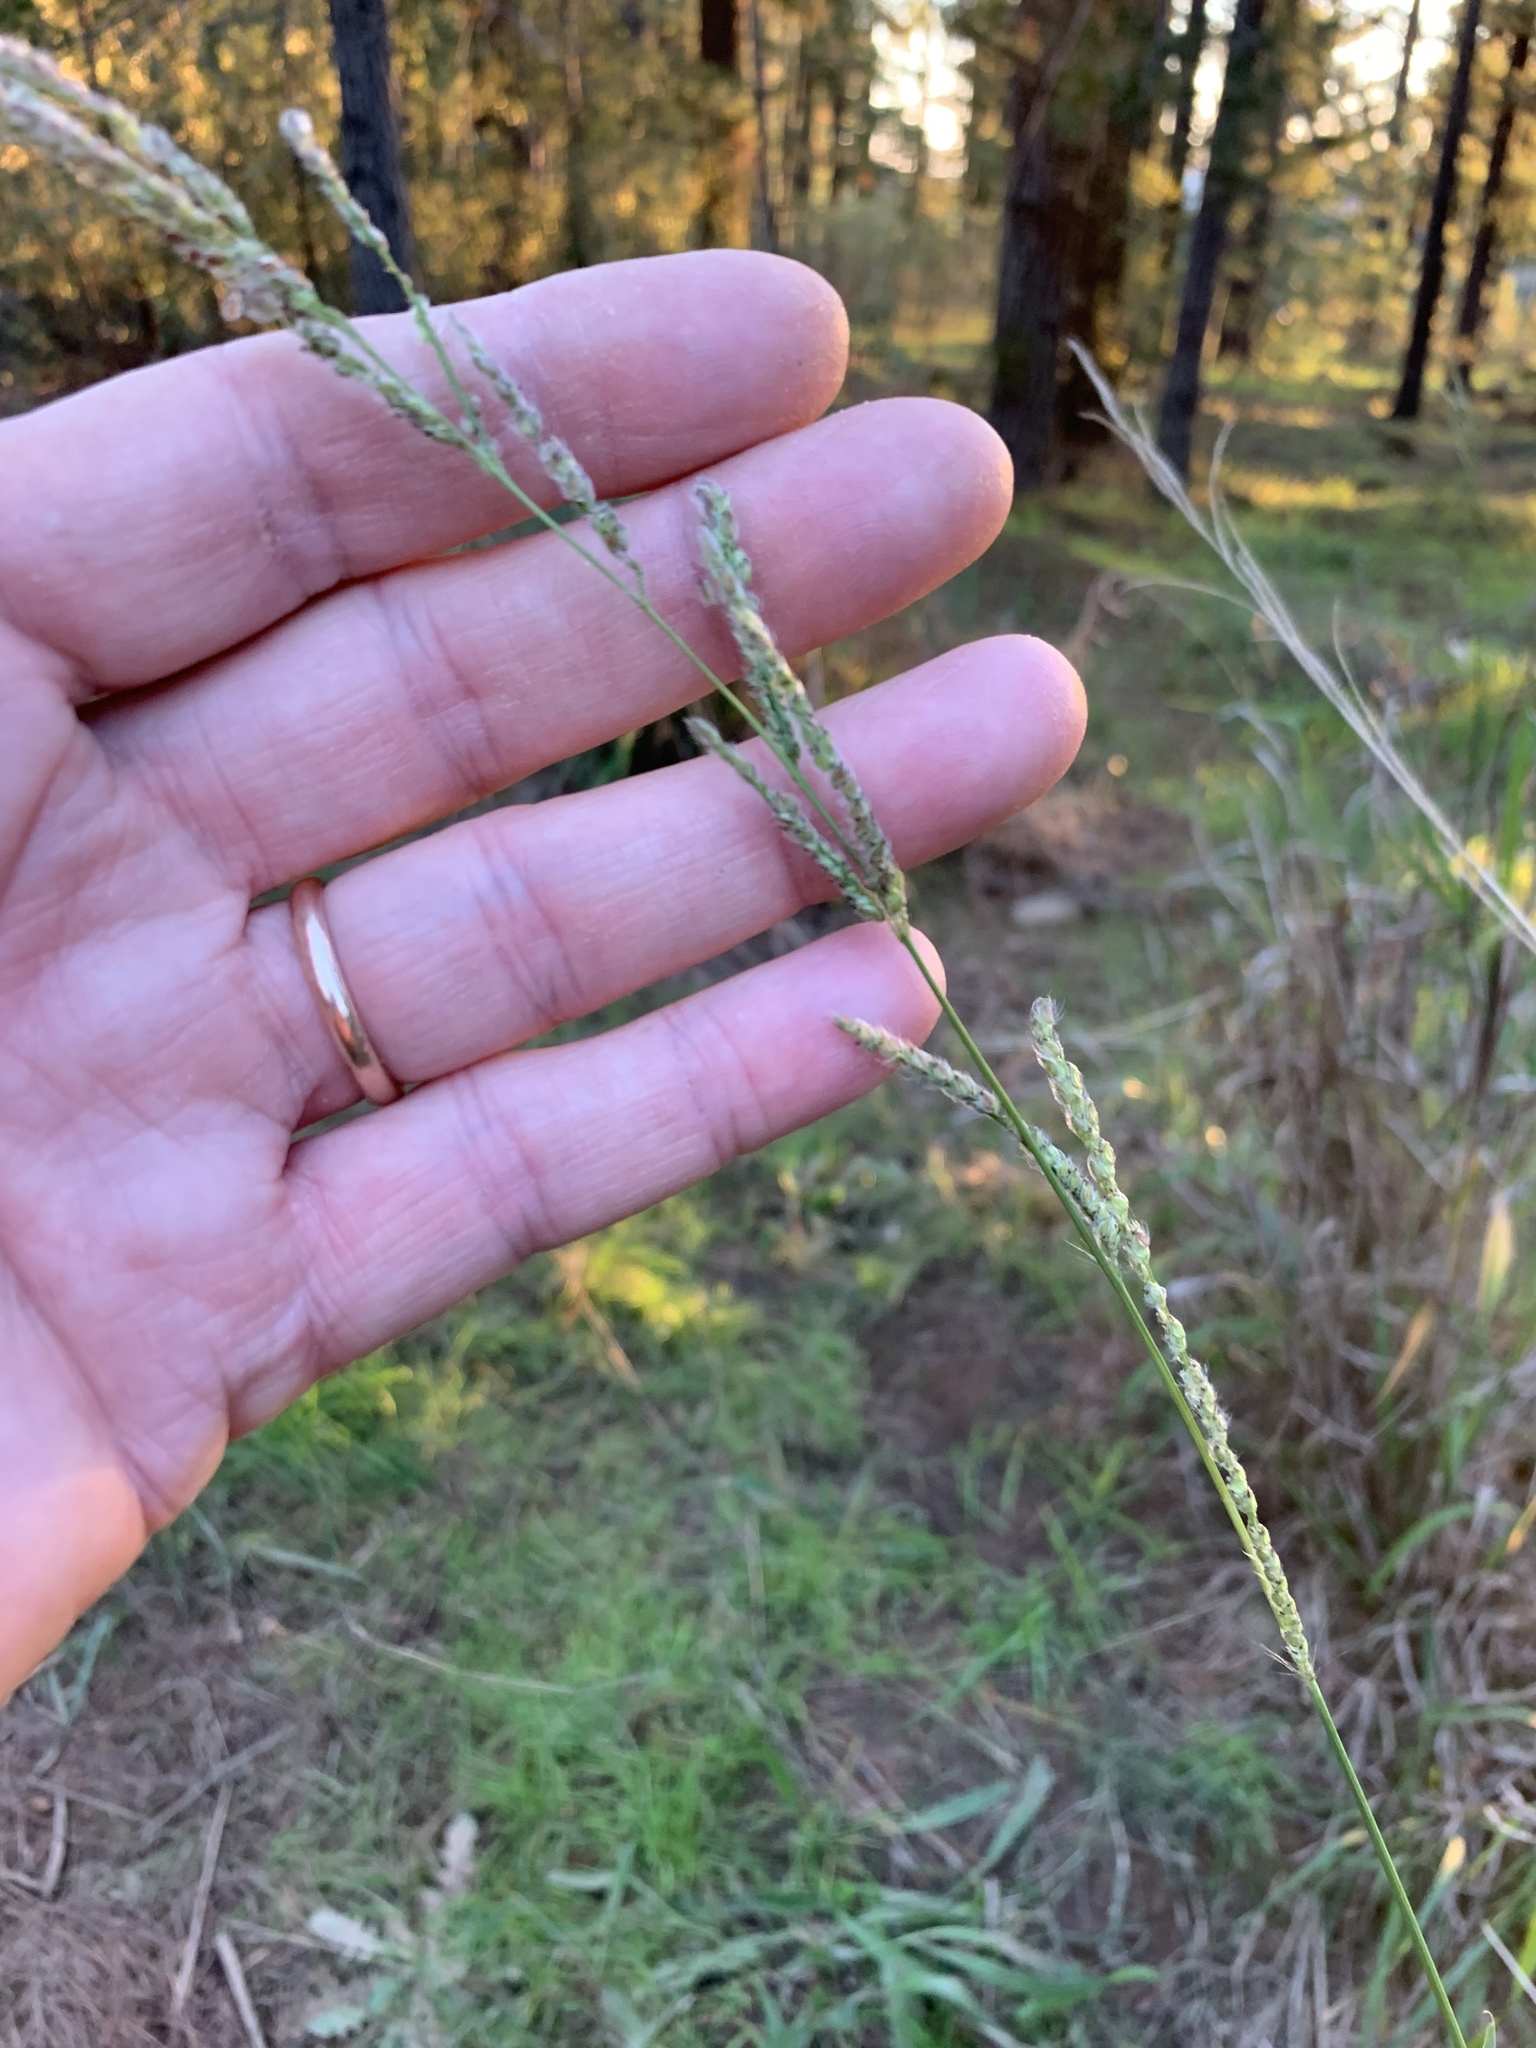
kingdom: Plantae
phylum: Tracheophyta
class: Liliopsida
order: Poales
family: Poaceae
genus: Paspalum
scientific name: Paspalum urvillei
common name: Vasey's grass
